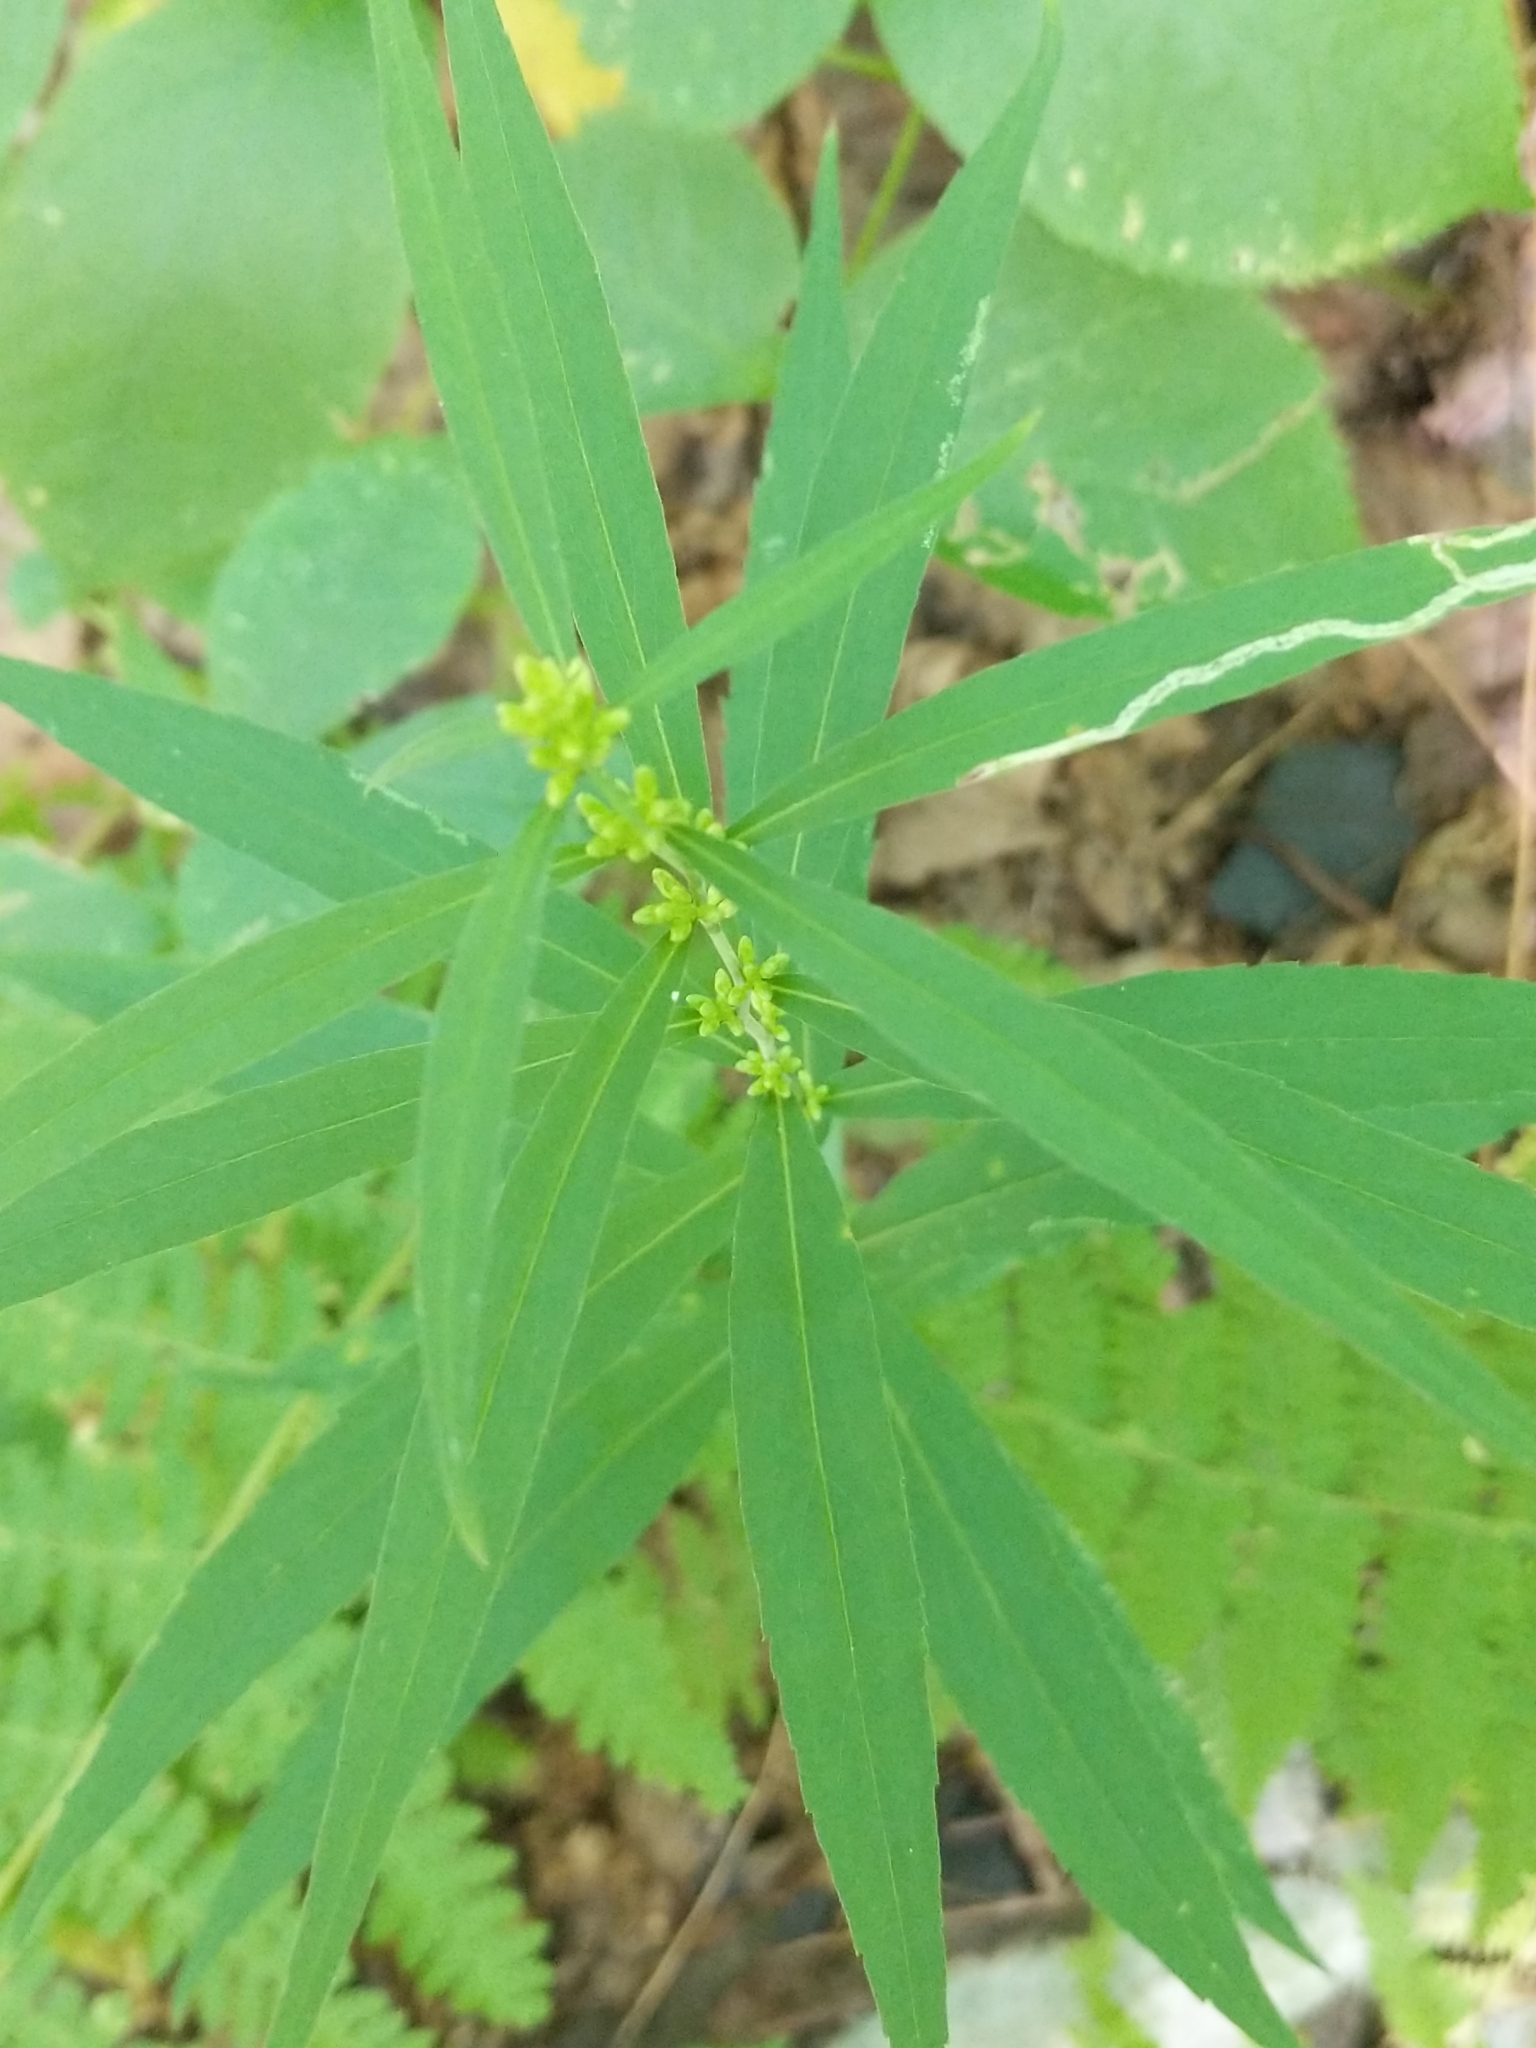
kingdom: Plantae
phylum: Tracheophyta
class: Magnoliopsida
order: Asterales
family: Asteraceae
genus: Solidago
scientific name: Solidago caesia
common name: Woodland goldenrod
